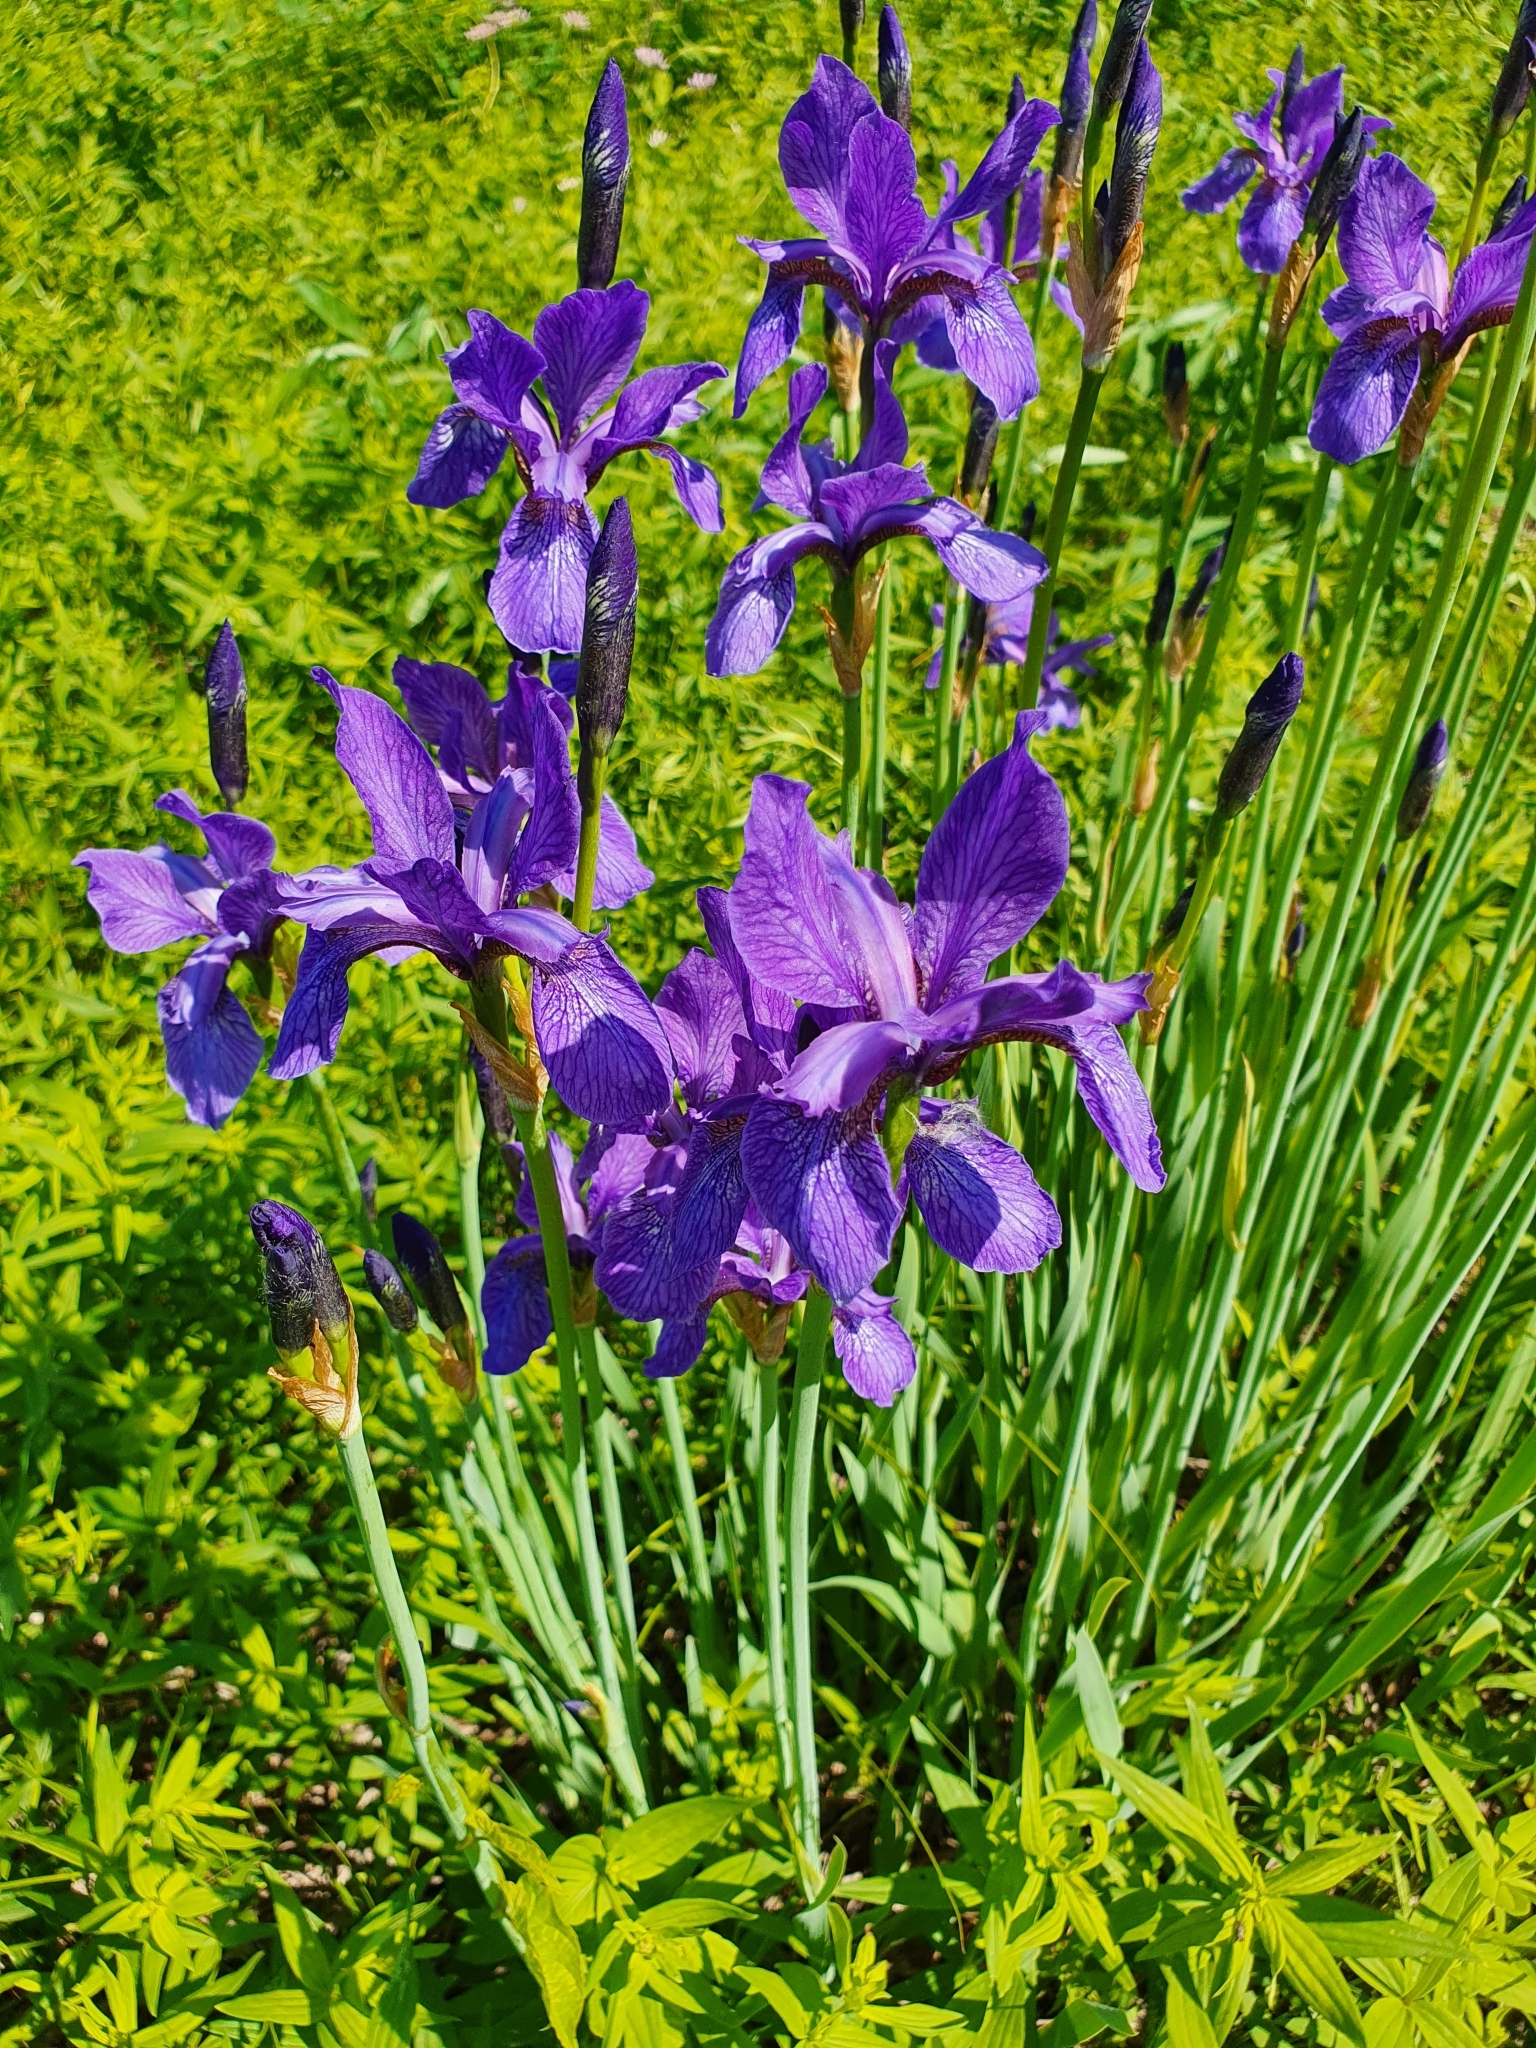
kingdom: Plantae
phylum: Tracheophyta
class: Liliopsida
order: Asparagales
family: Iridaceae
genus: Iris
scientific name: Iris sibirica
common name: Siberian iris
